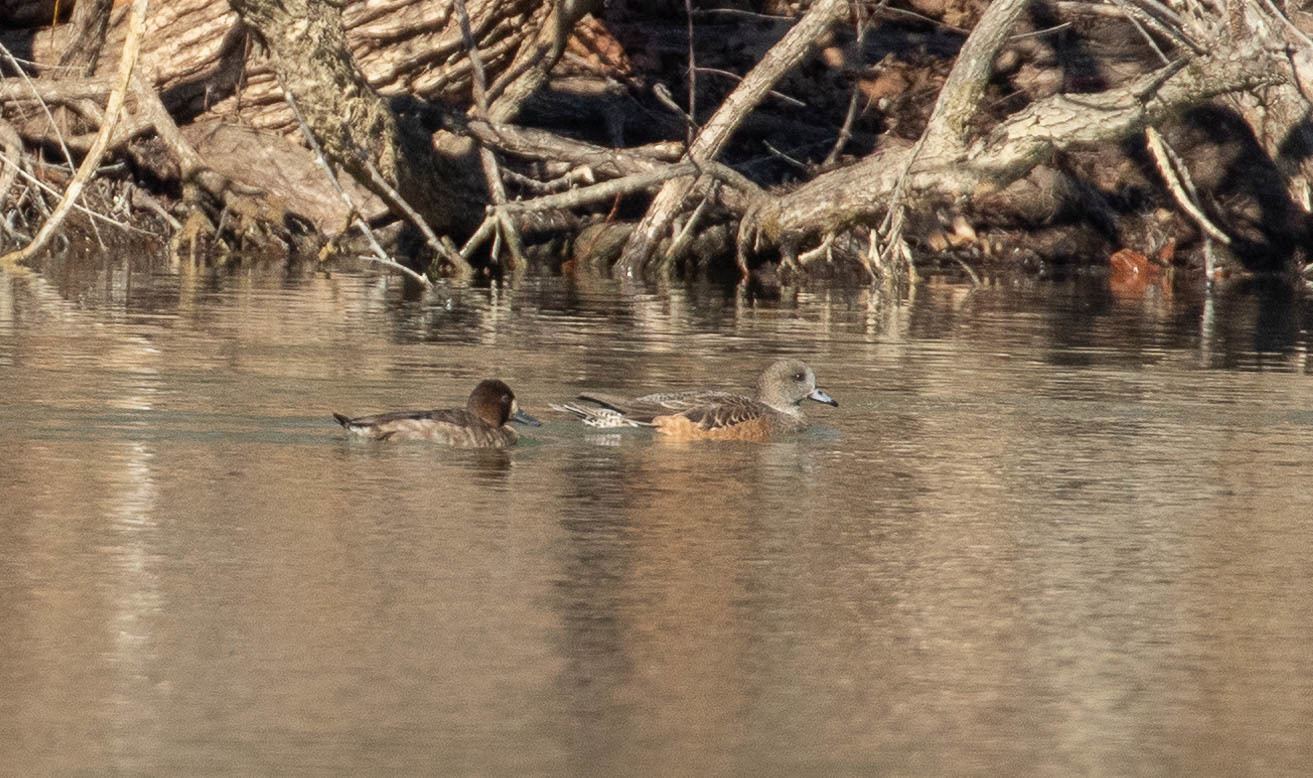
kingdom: Animalia
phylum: Chordata
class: Aves
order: Anseriformes
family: Anatidae
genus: Mareca
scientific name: Mareca americana
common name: American wigeon
